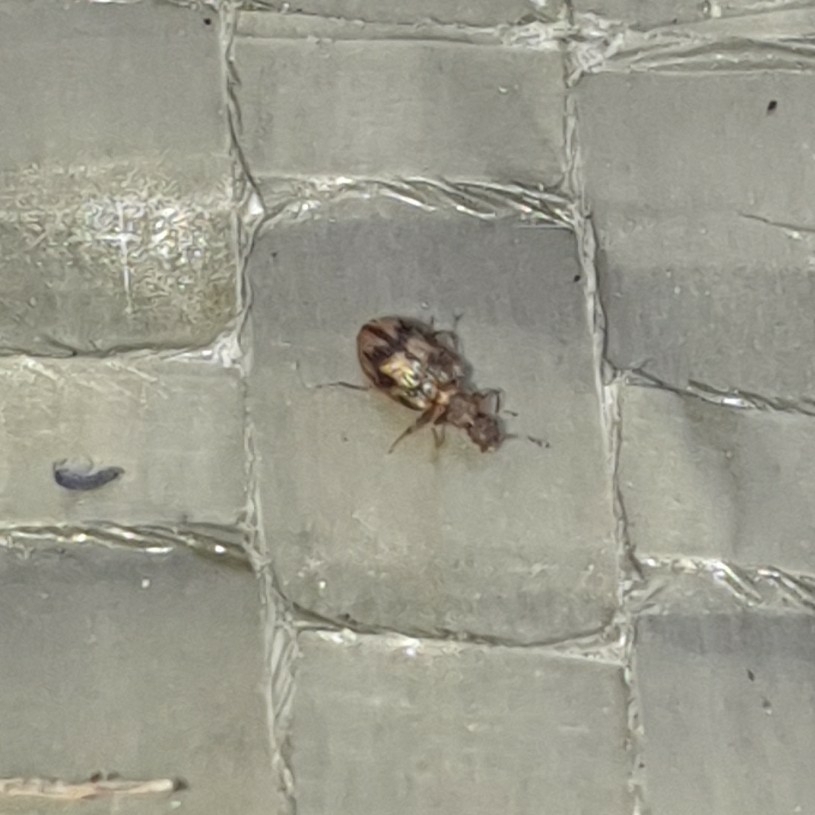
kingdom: Animalia
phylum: Arthropoda
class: Insecta
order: Coleoptera
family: Latridiidae
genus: Cartodere
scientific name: Cartodere bifasciata
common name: Plaster beetle
